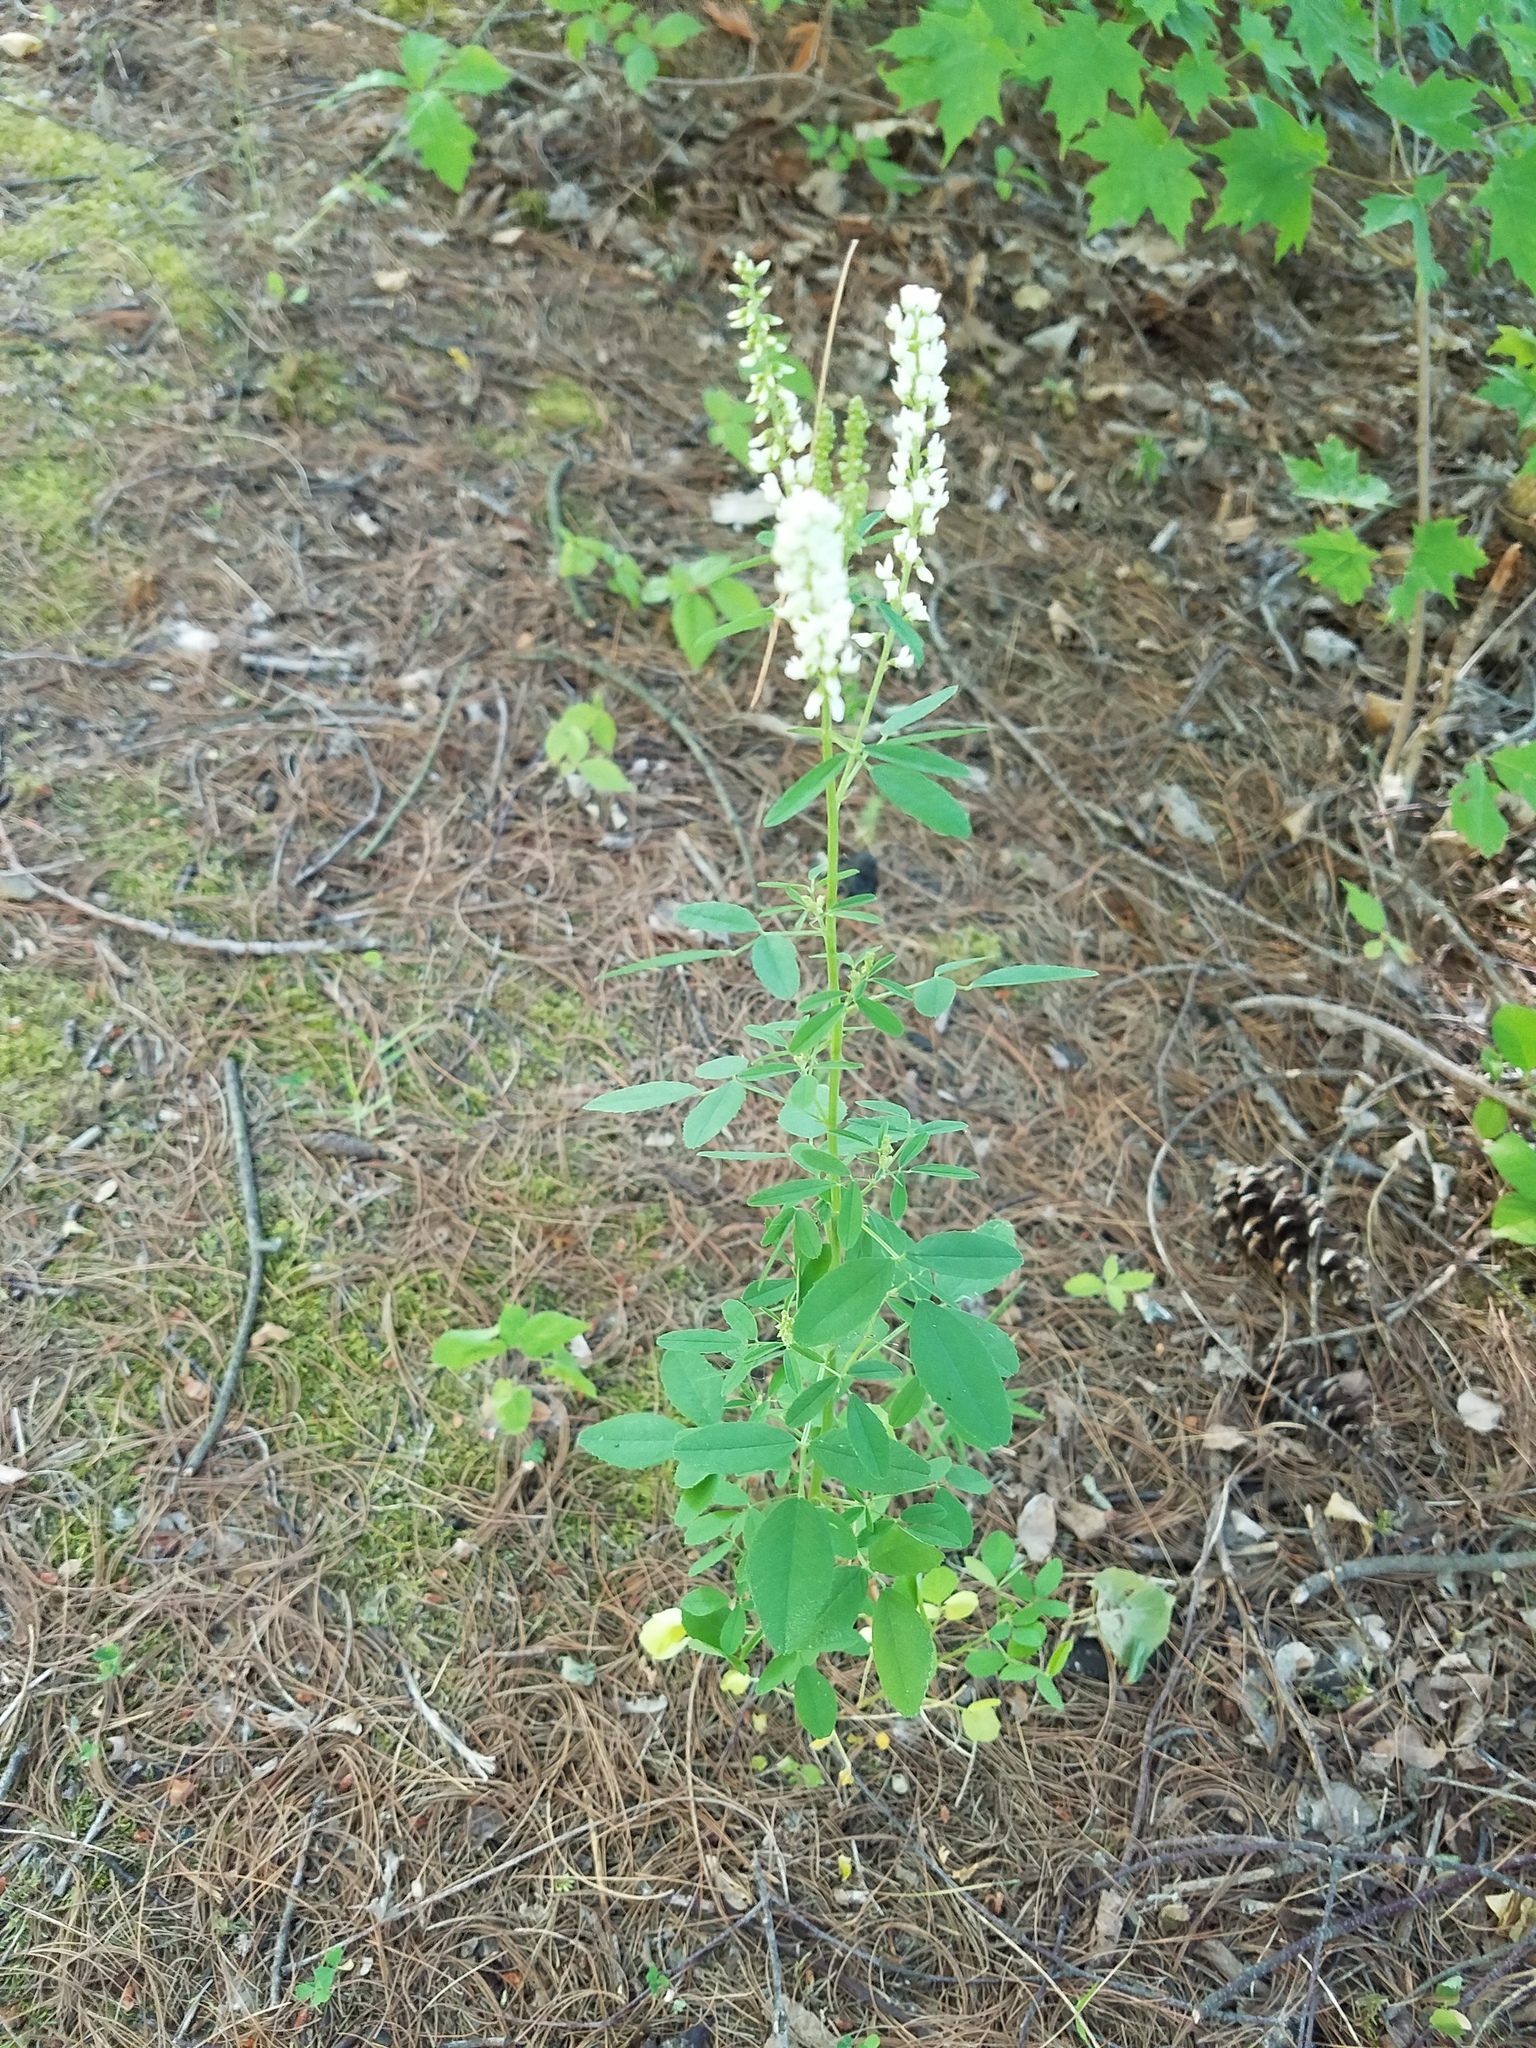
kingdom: Plantae
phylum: Tracheophyta
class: Magnoliopsida
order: Fabales
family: Fabaceae
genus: Melilotus
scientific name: Melilotus albus
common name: White melilot
